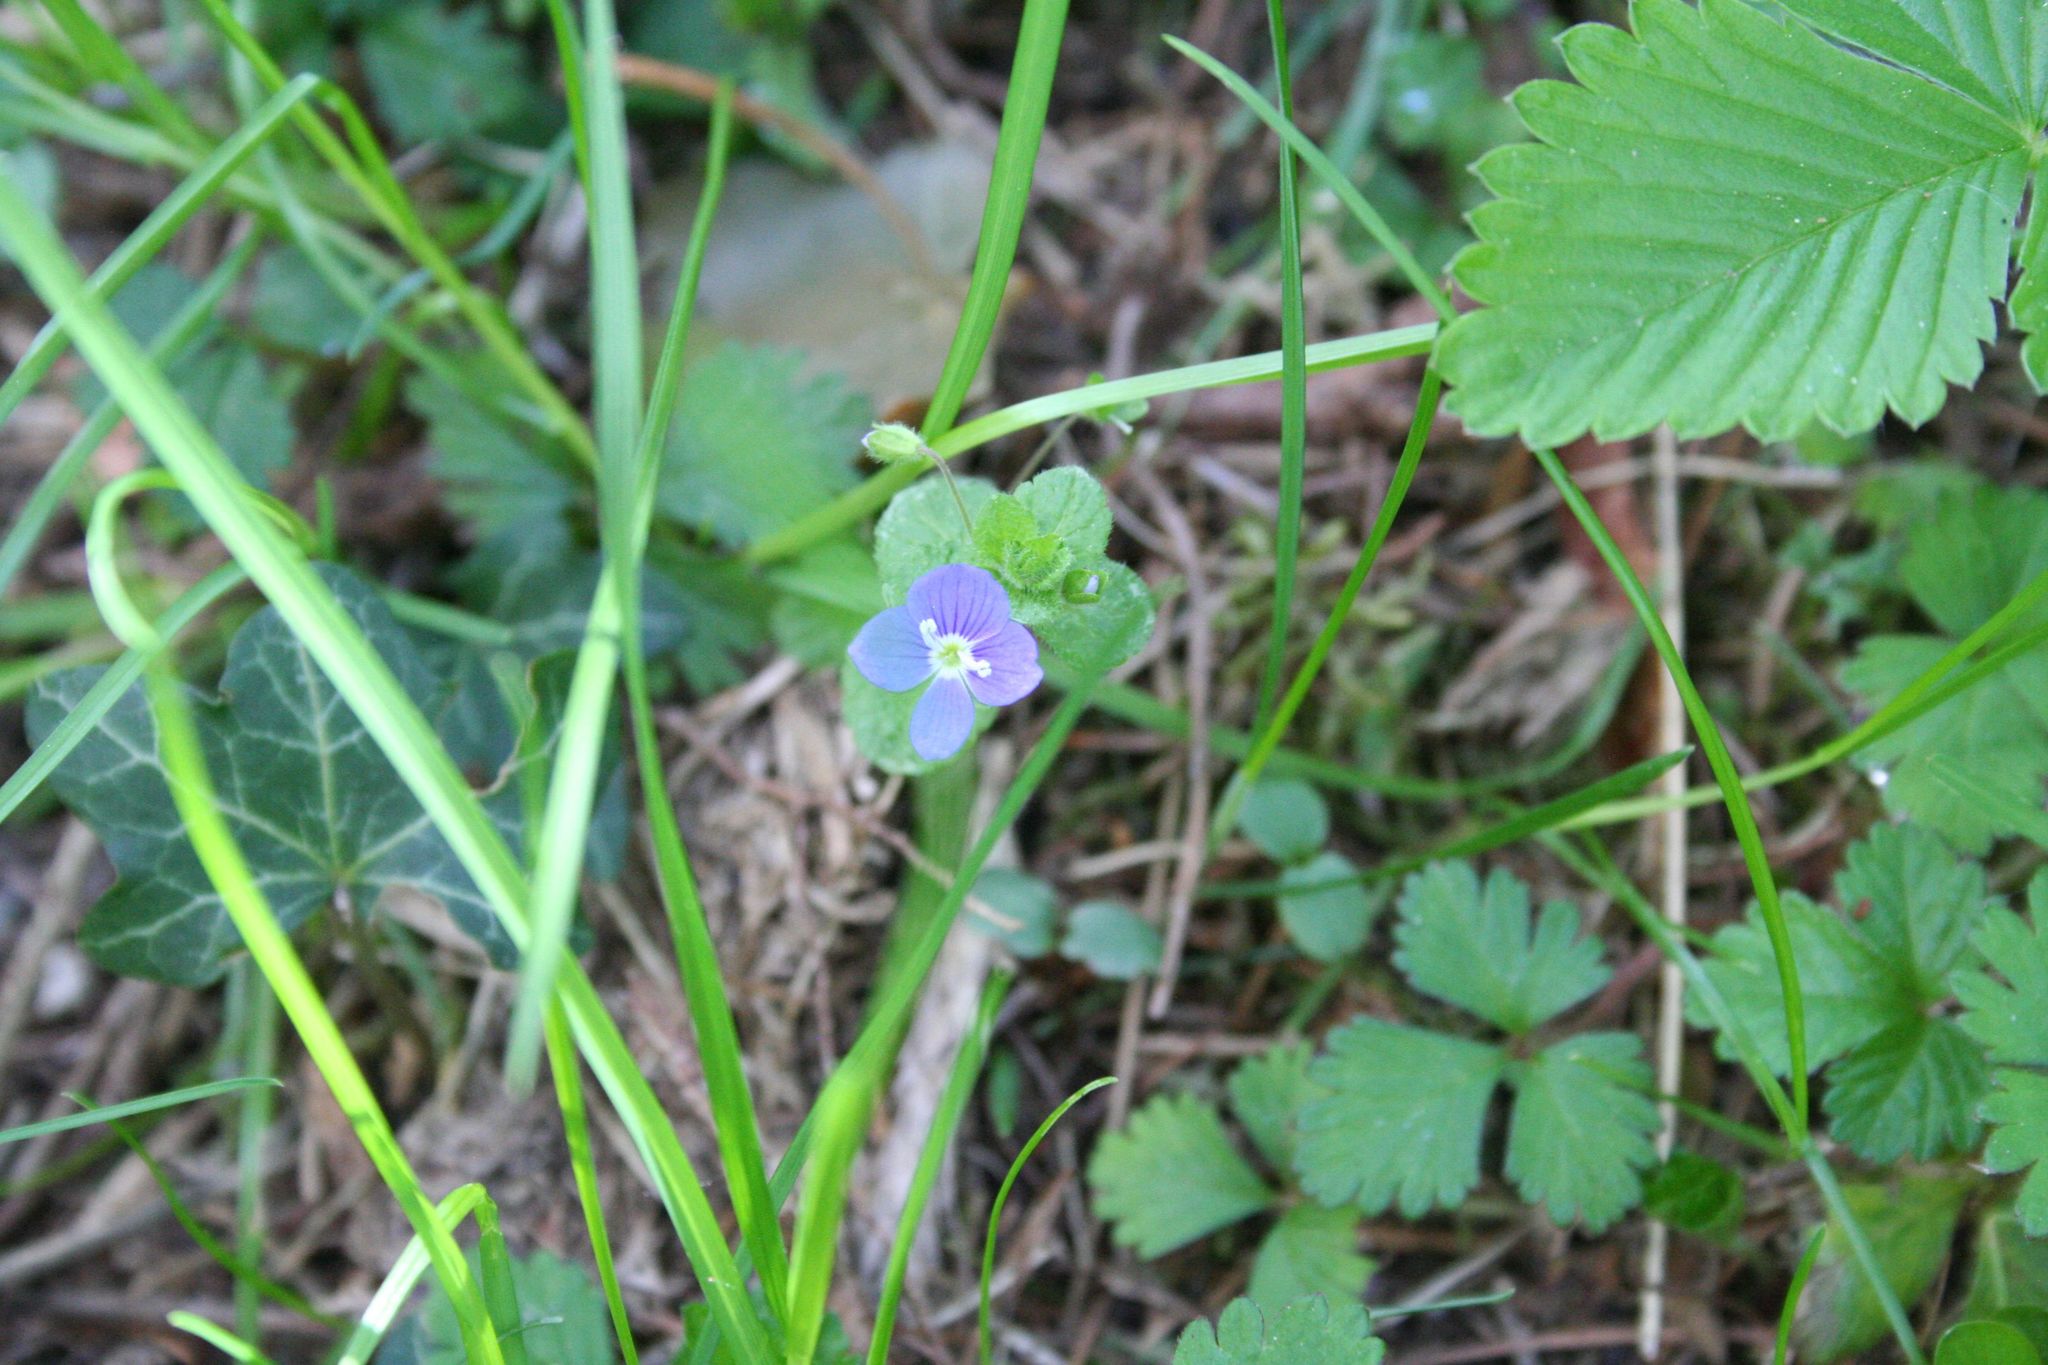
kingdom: Plantae
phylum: Tracheophyta
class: Magnoliopsida
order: Lamiales
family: Plantaginaceae
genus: Veronica
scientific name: Veronica persica
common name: Common field-speedwell
